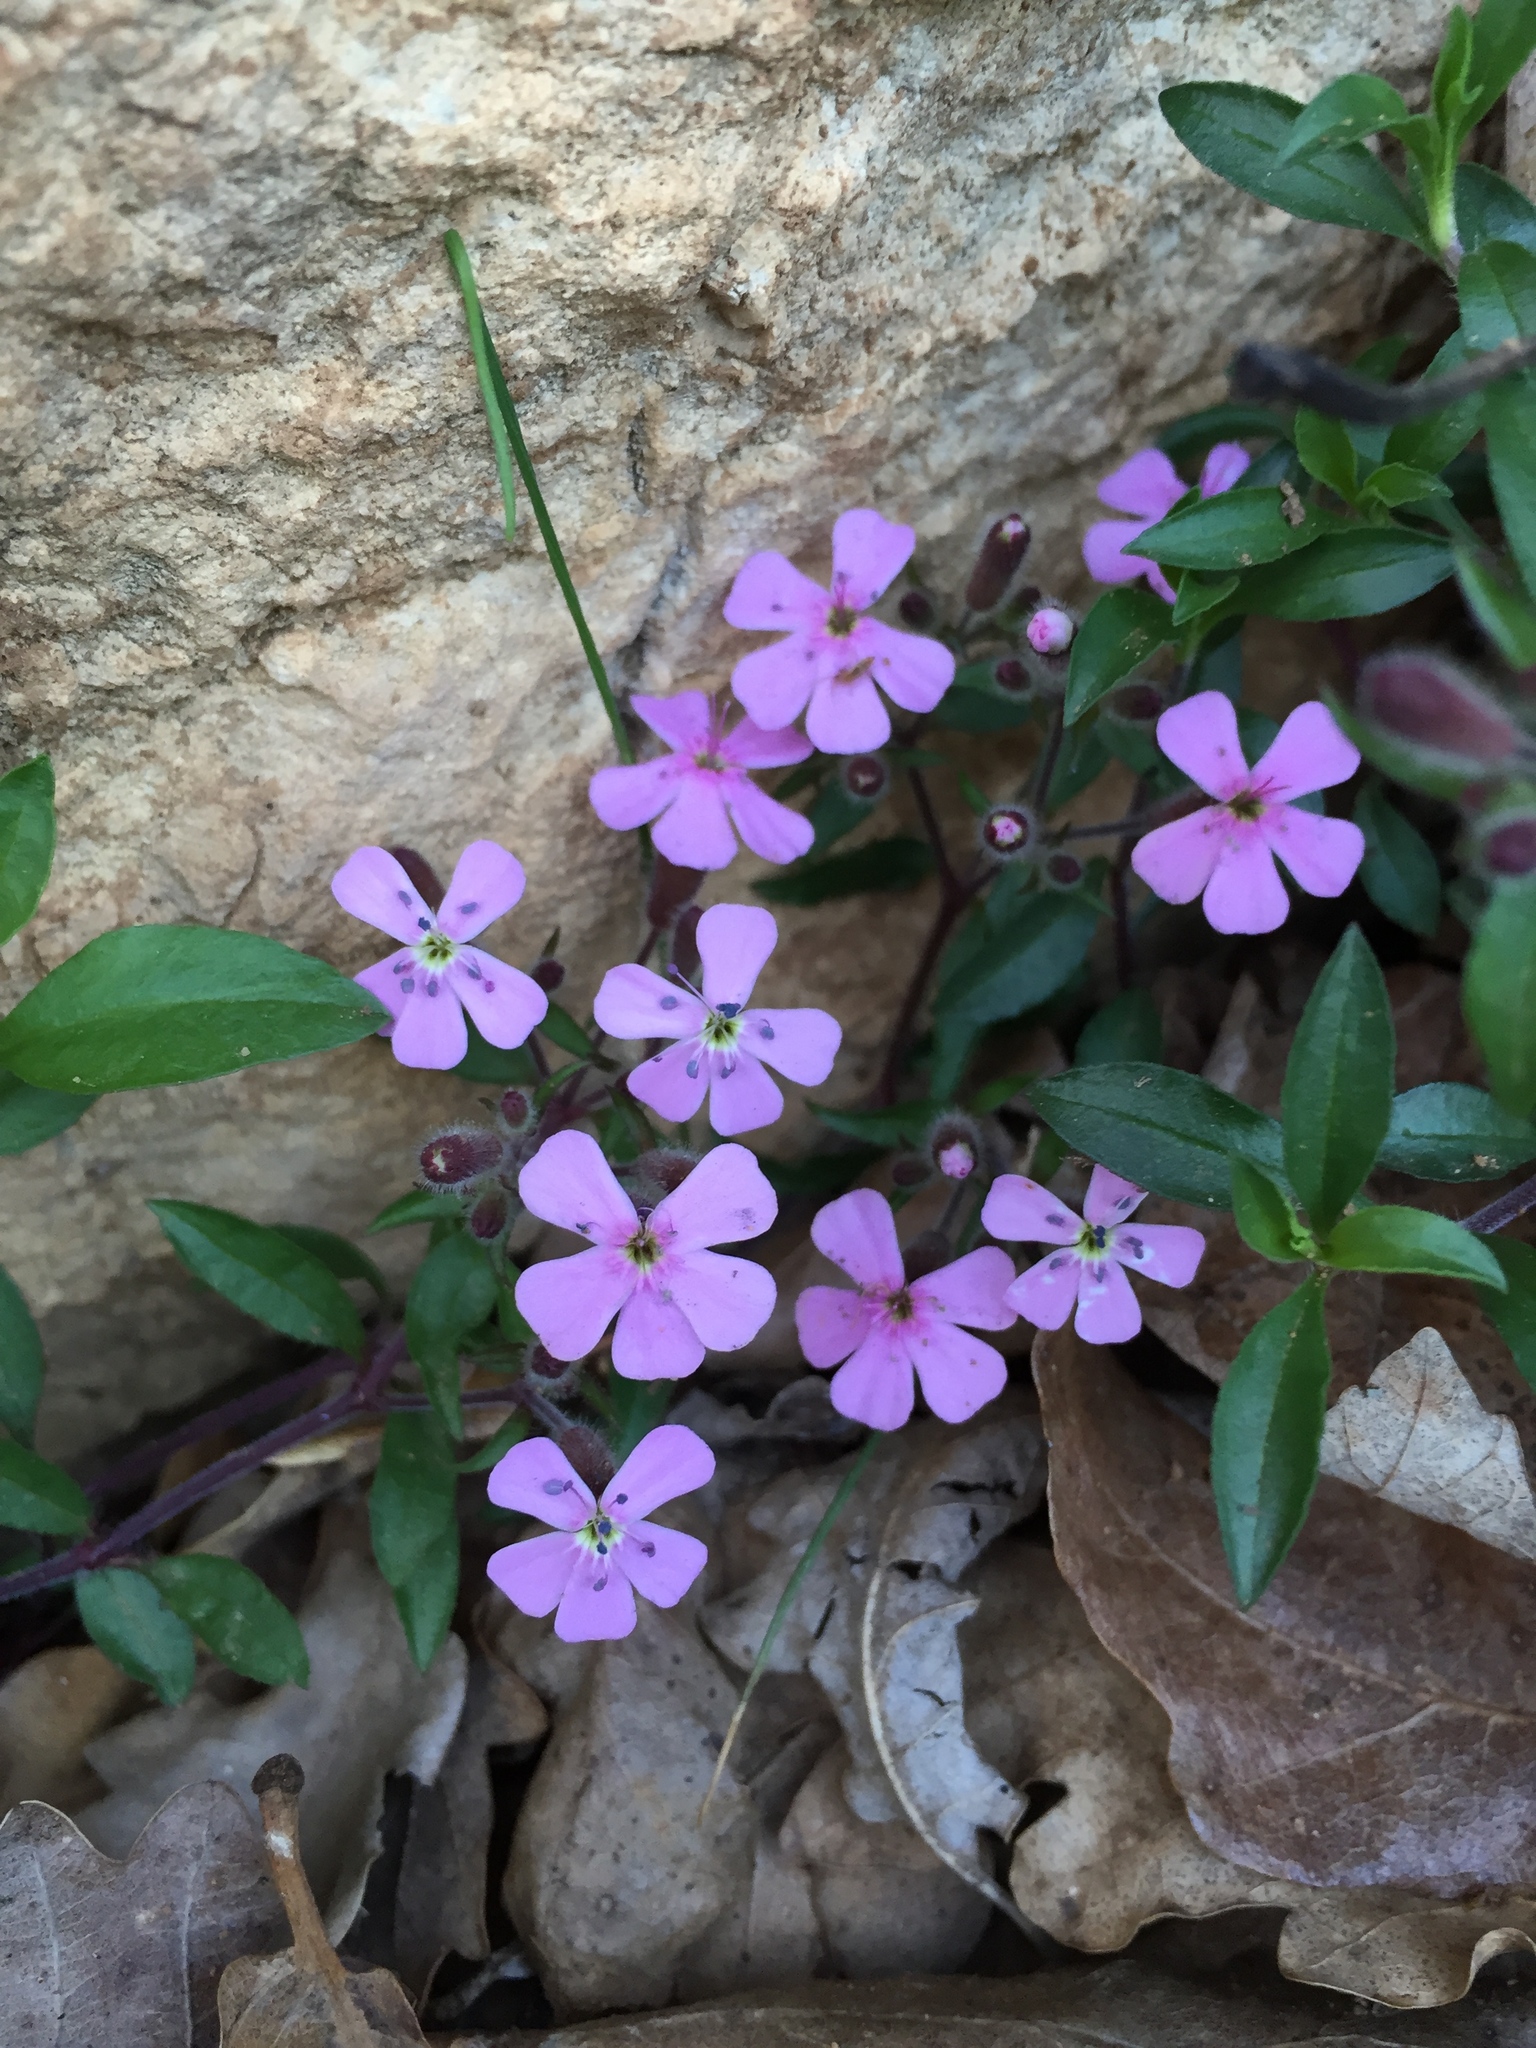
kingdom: Plantae
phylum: Tracheophyta
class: Magnoliopsida
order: Caryophyllales
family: Caryophyllaceae
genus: Saponaria
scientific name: Saponaria ocymoides
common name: Rock soapwort
